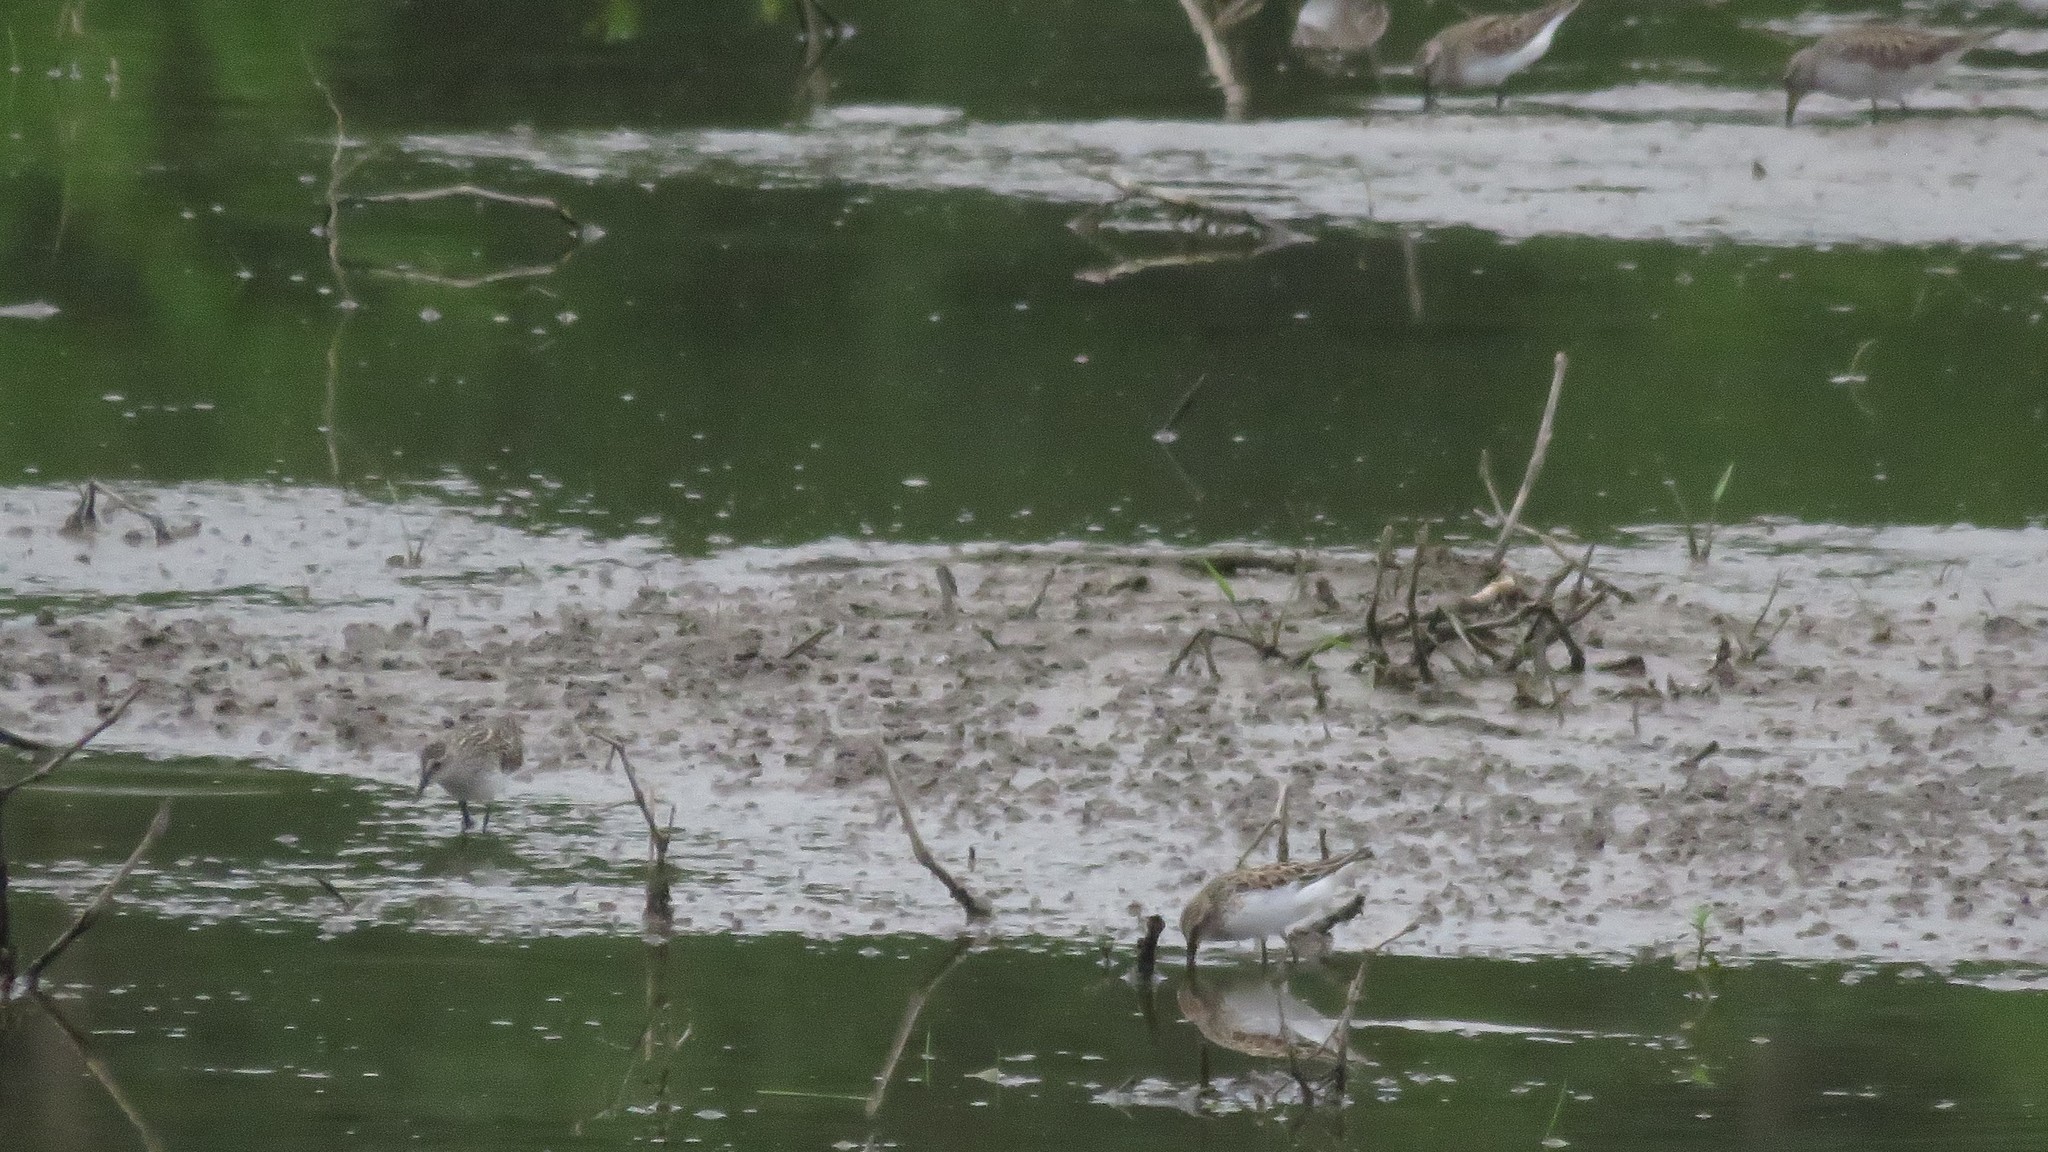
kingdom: Animalia
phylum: Chordata
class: Aves
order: Charadriiformes
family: Scolopacidae
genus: Calidris
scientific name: Calidris pusilla
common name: Semipalmated sandpiper
